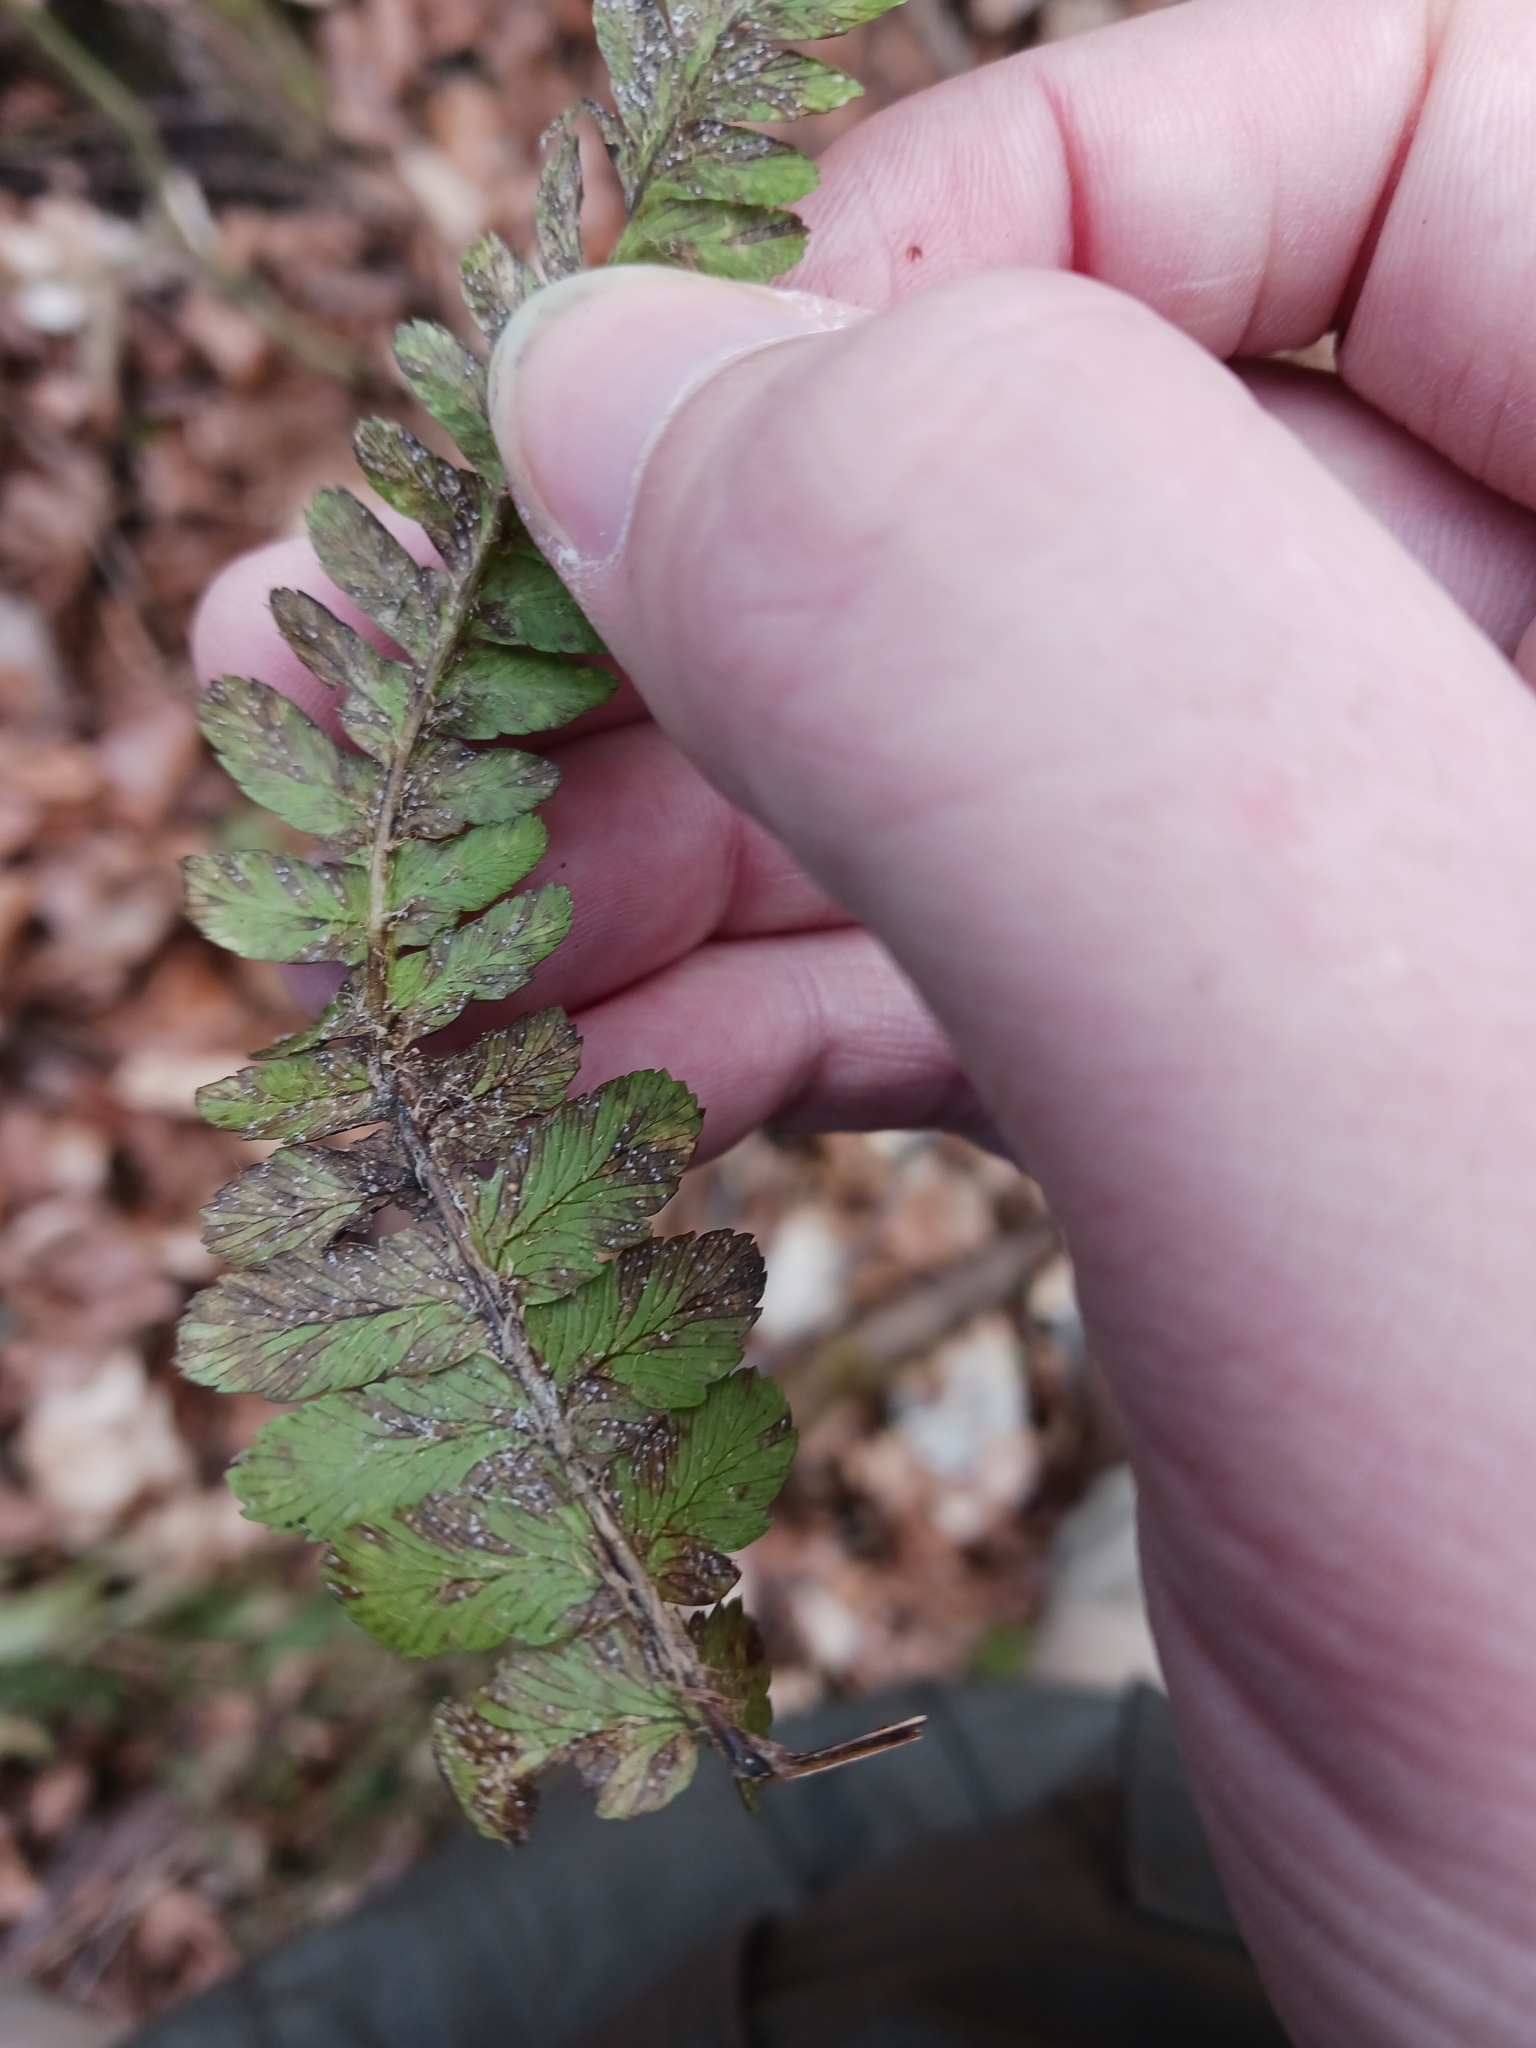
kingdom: Fungi
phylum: Basidiomycota
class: Pucciniomycetes
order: Pucciniales
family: Milesinaceae
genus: Milesina
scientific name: Milesina kriegeriana
